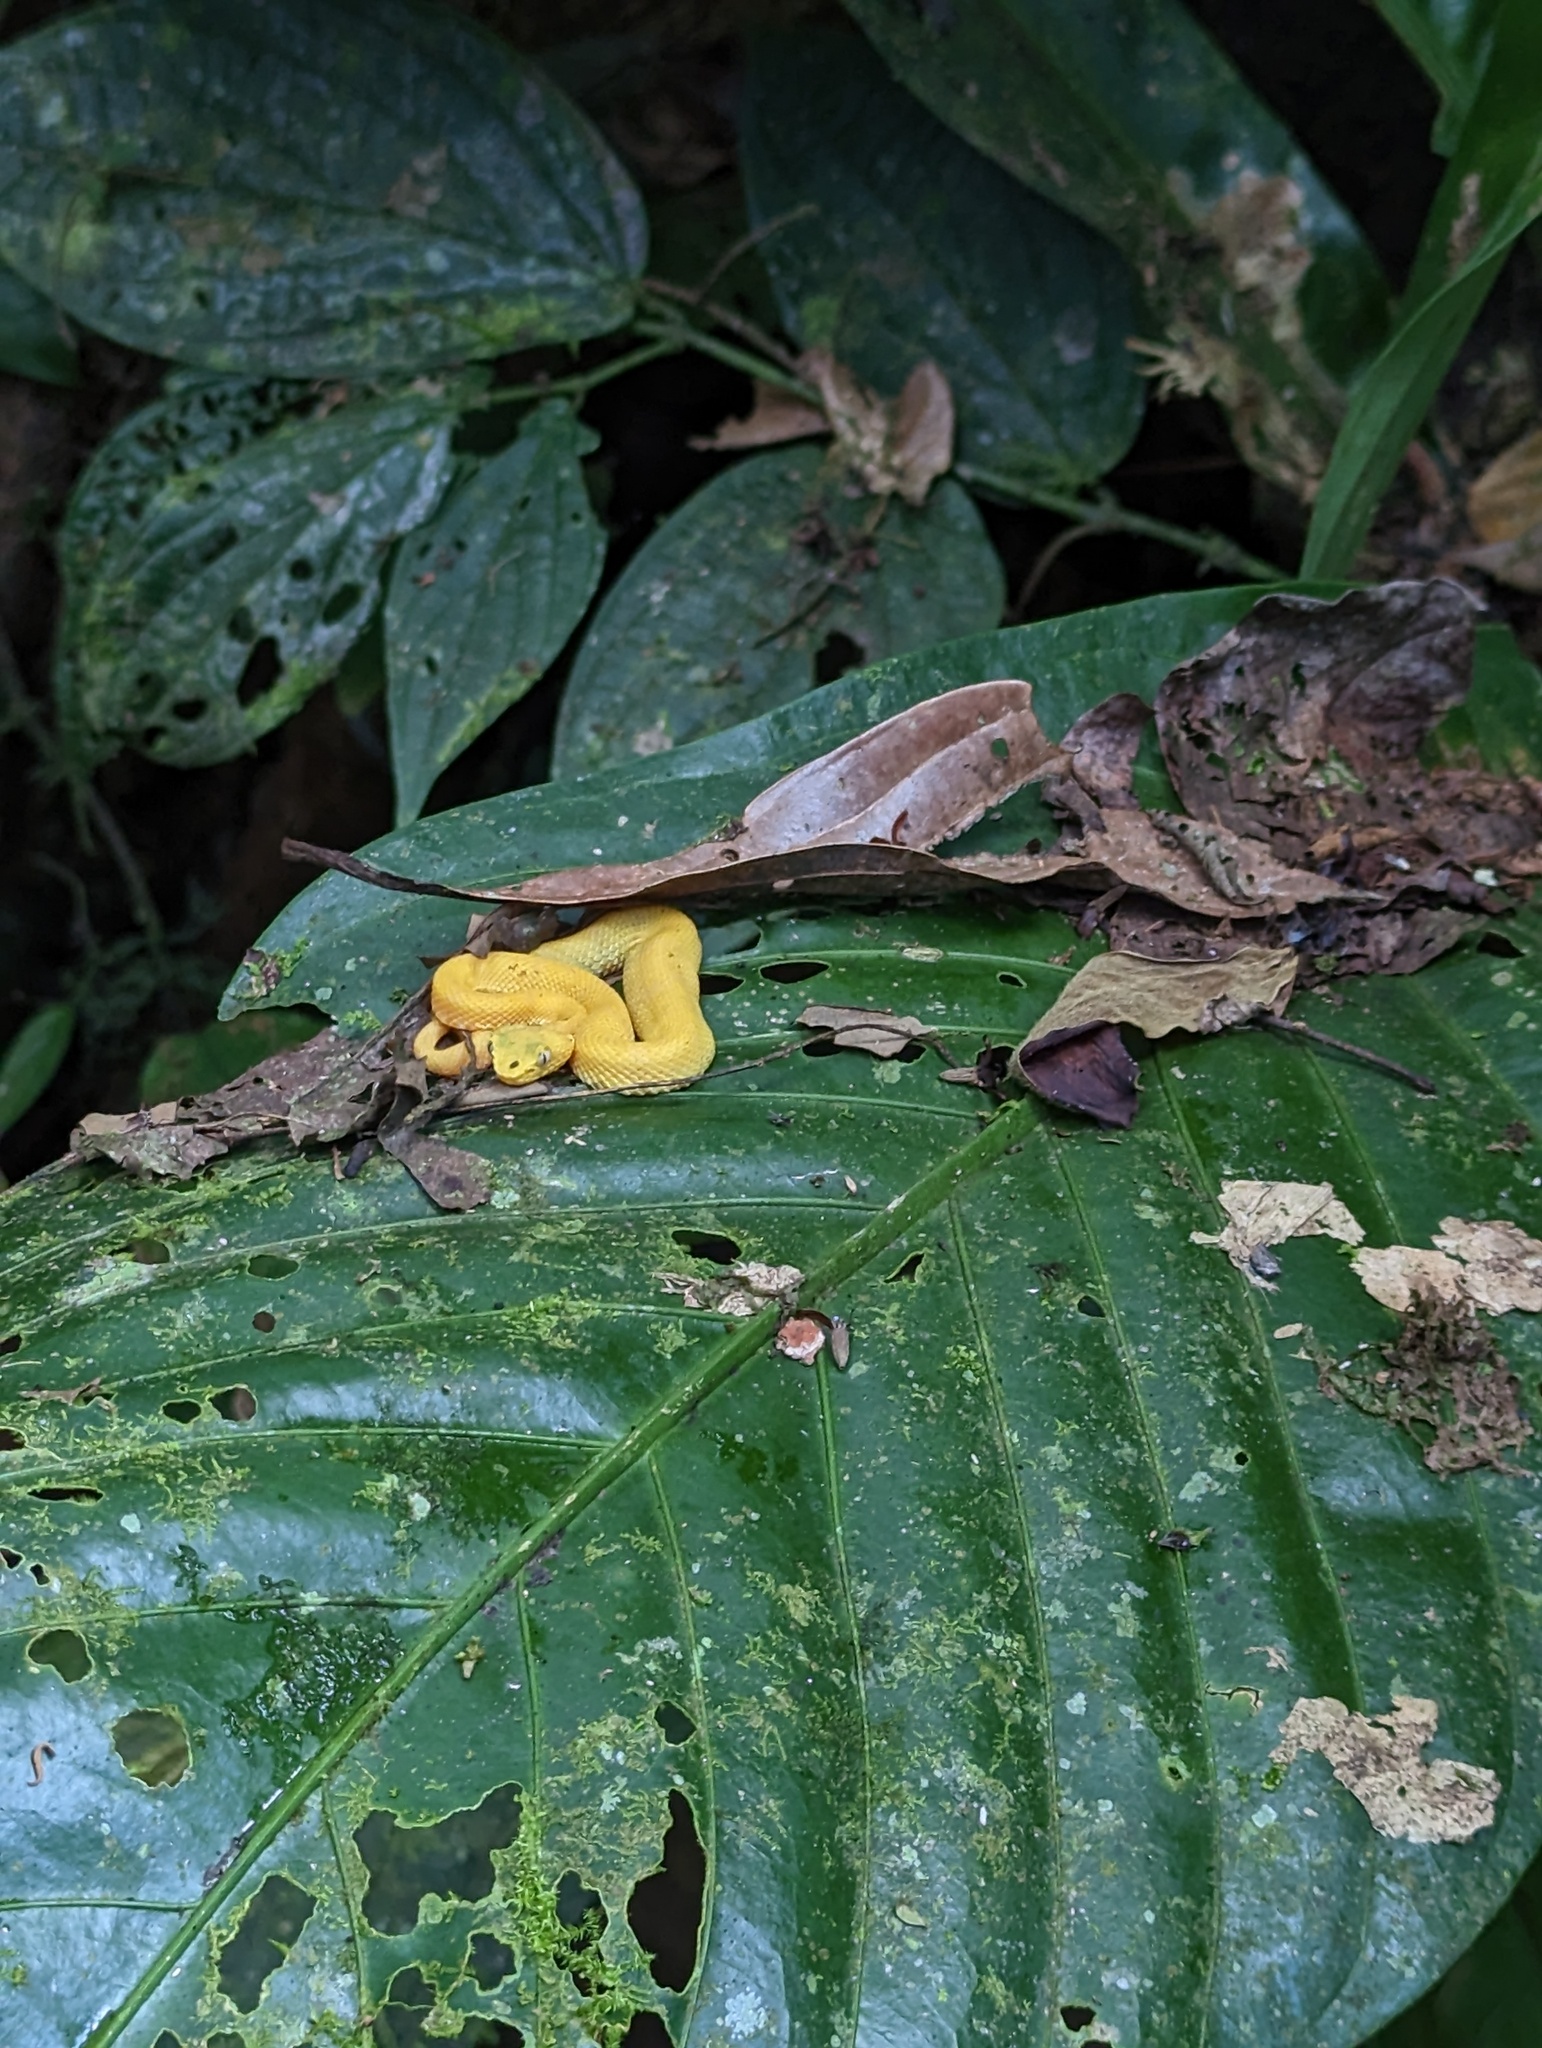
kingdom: Animalia
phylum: Chordata
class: Squamata
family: Viperidae
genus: Bothriechis
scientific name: Bothriechis schlegelii
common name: Eyelash viper
